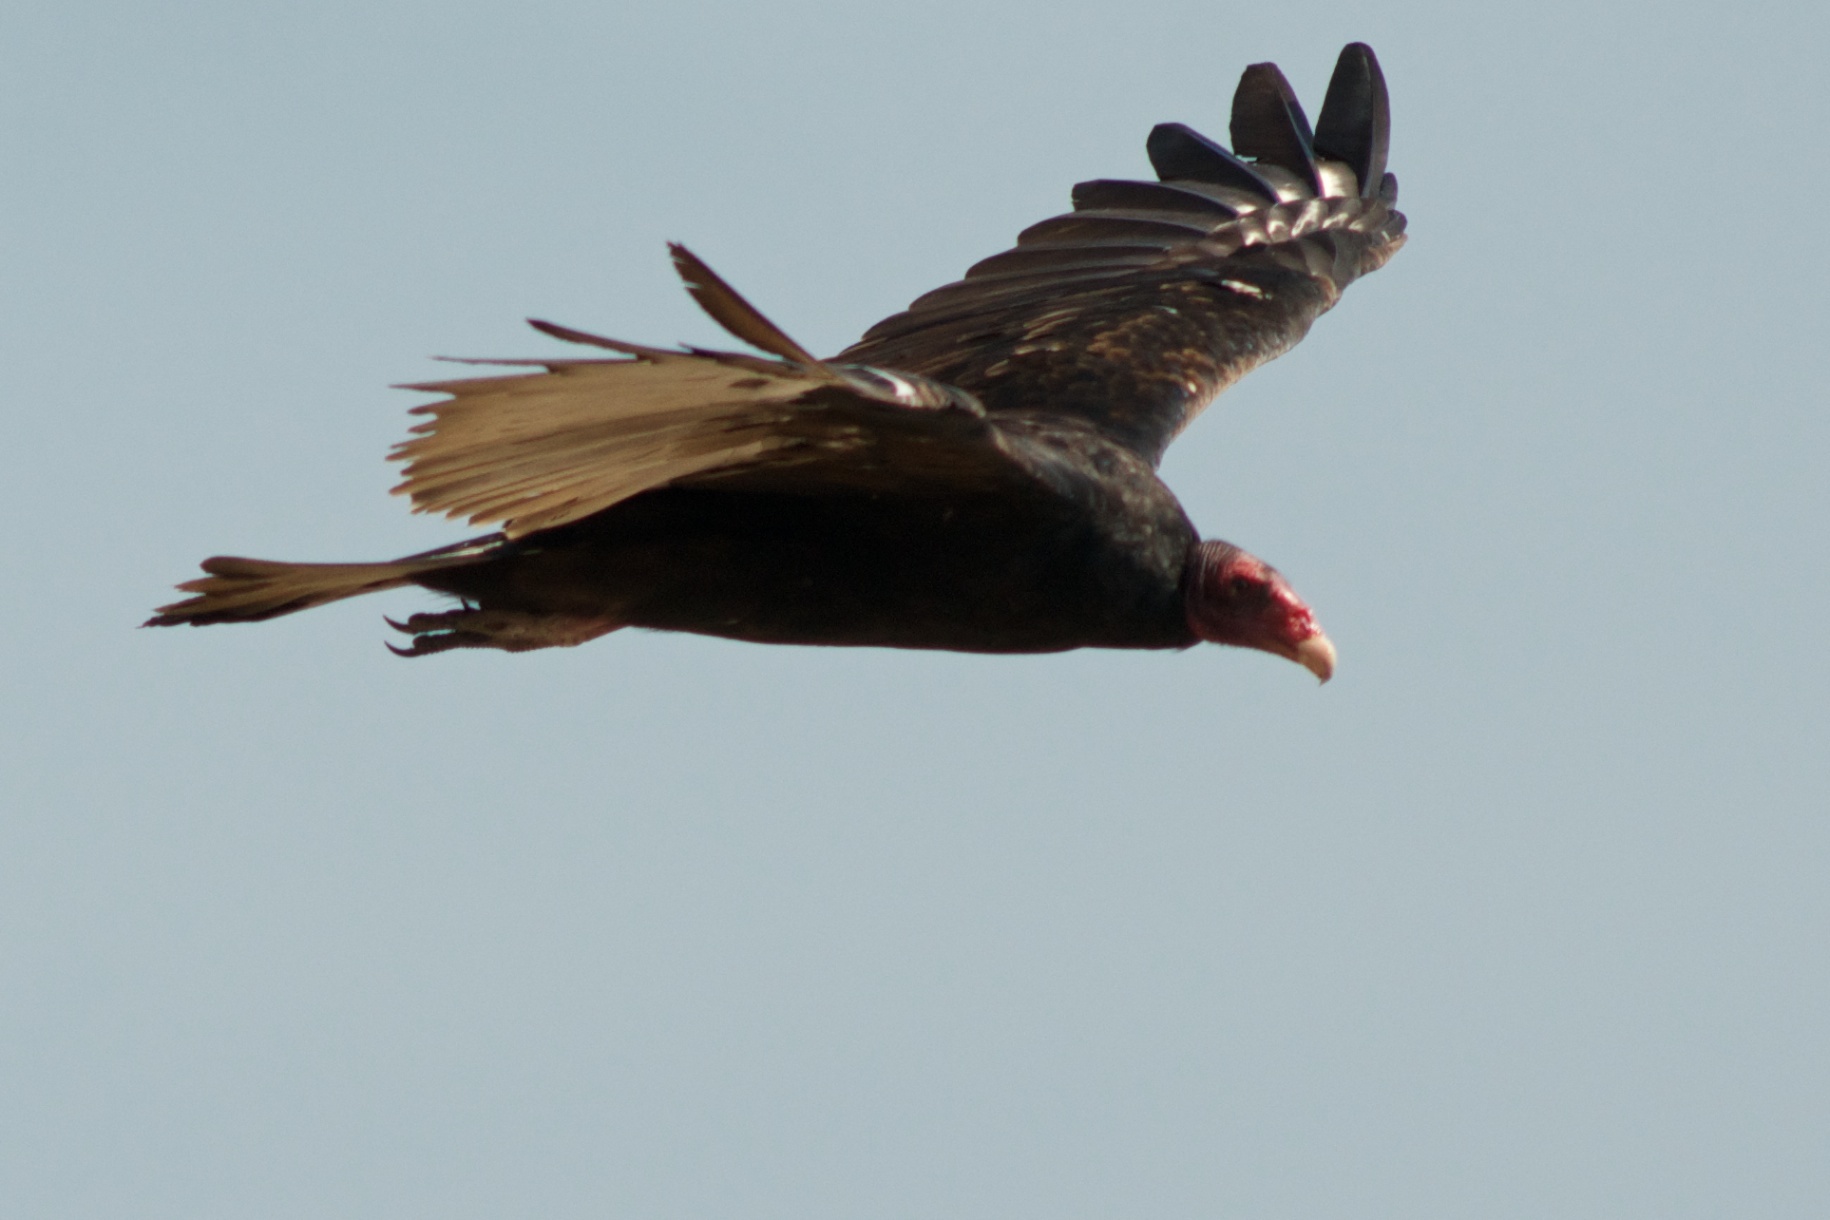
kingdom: Animalia
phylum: Chordata
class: Aves
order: Accipitriformes
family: Cathartidae
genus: Cathartes
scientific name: Cathartes aura
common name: Turkey vulture
